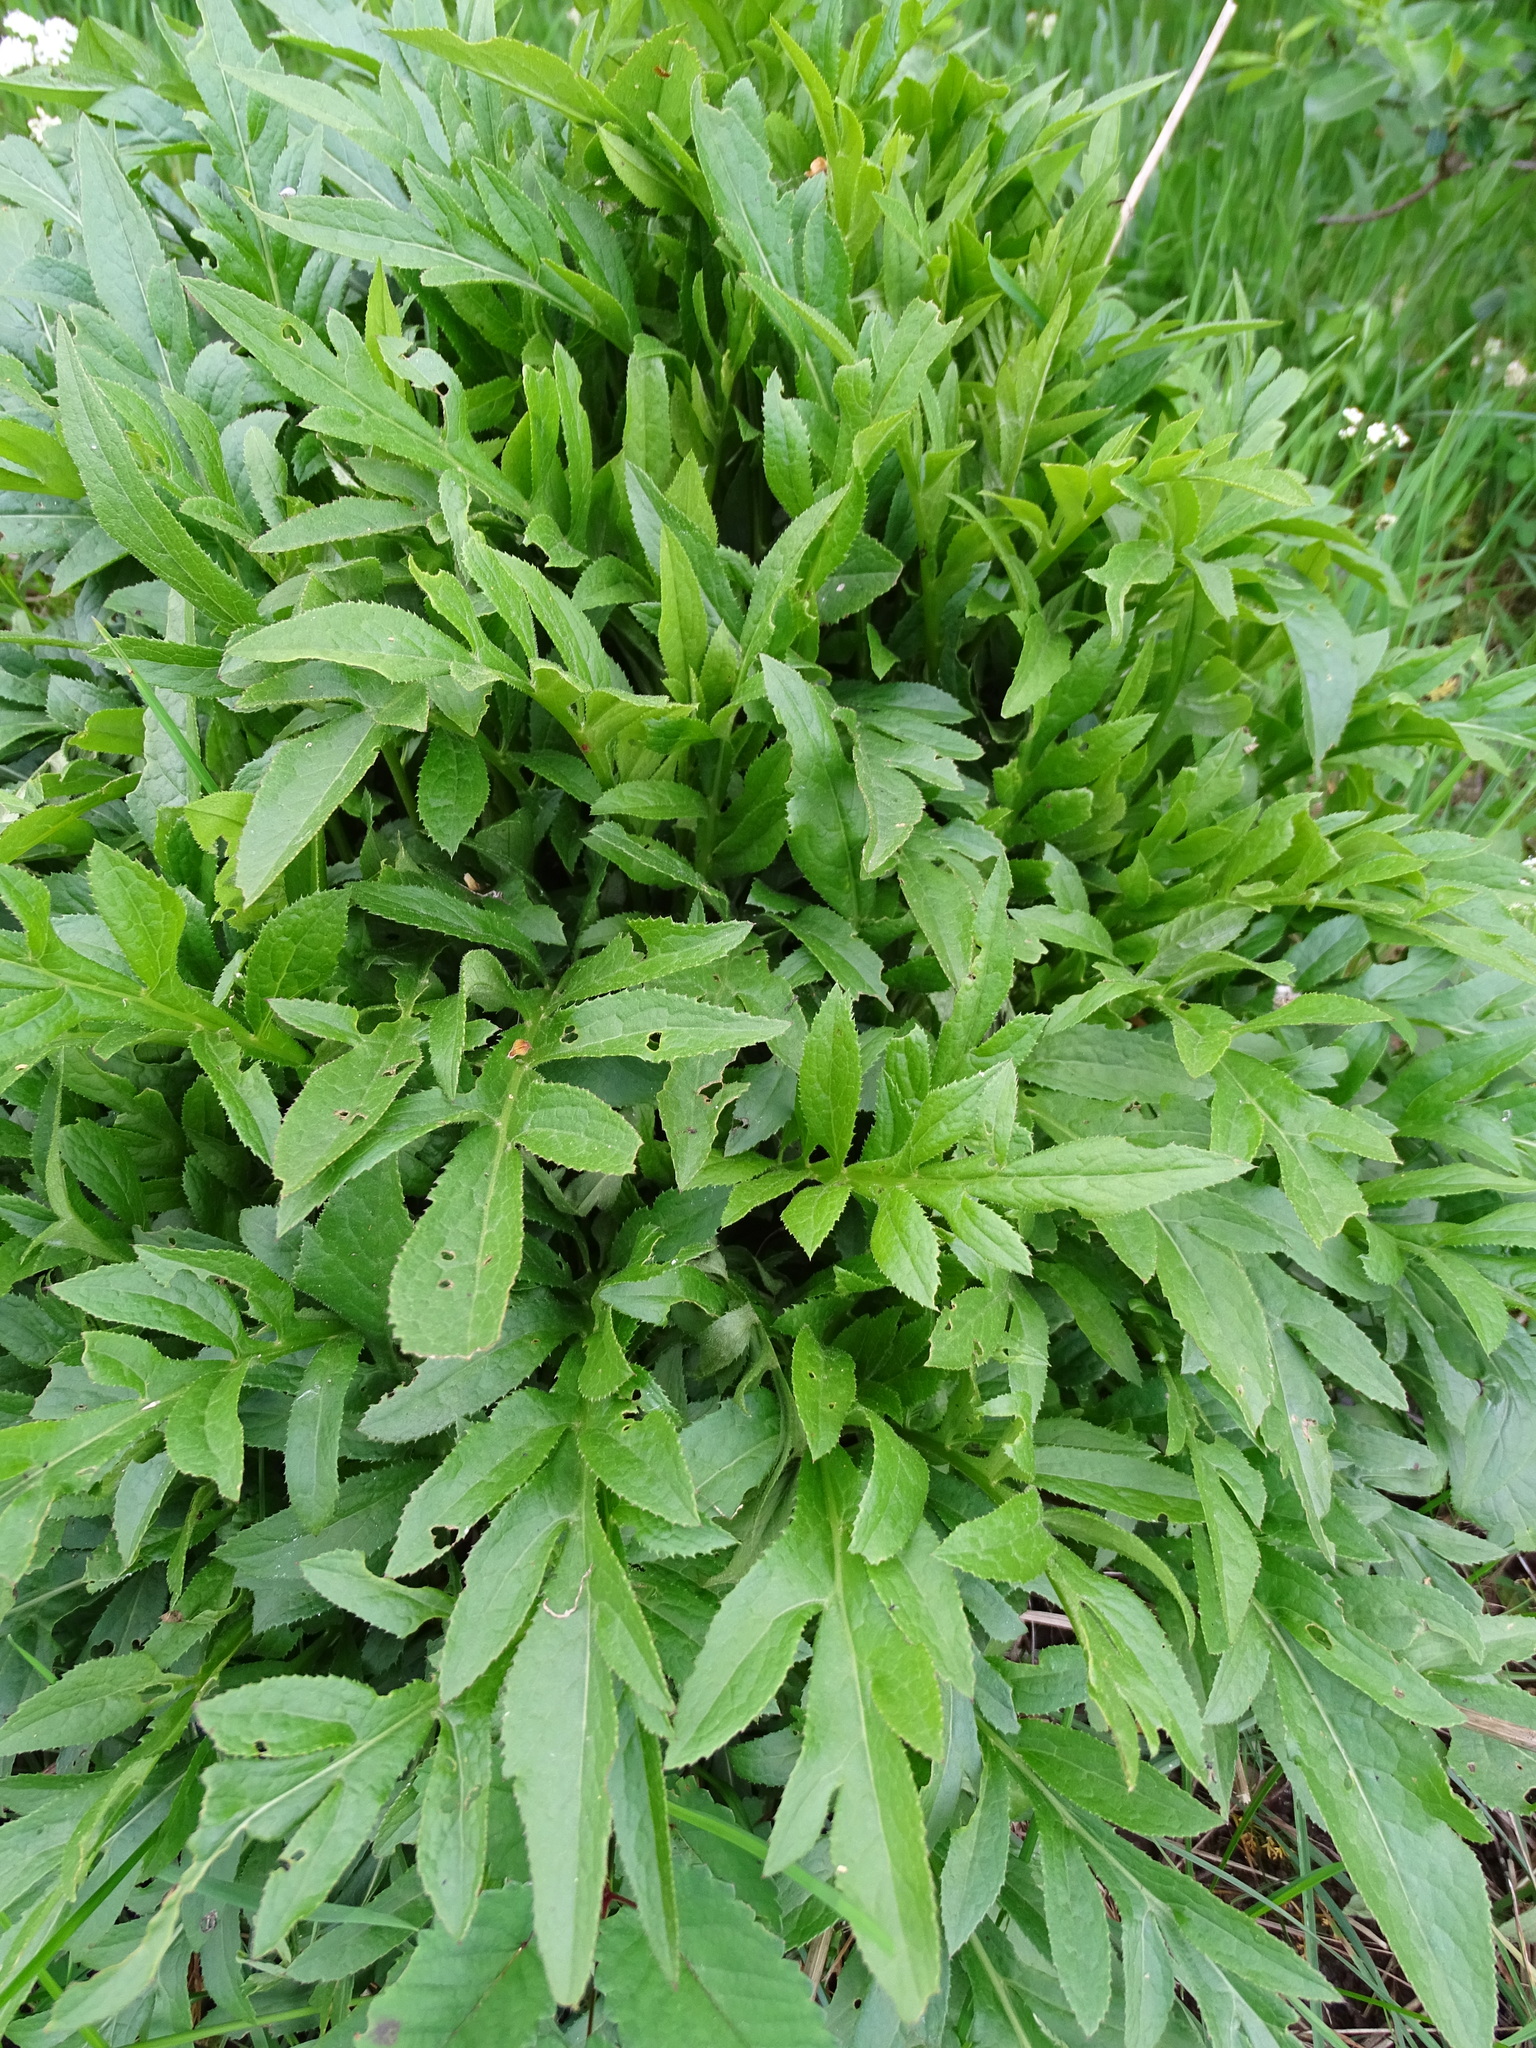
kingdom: Plantae
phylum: Tracheophyta
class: Magnoliopsida
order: Asterales
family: Asteraceae
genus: Serratula
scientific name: Serratula tinctoria
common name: Saw-wort
